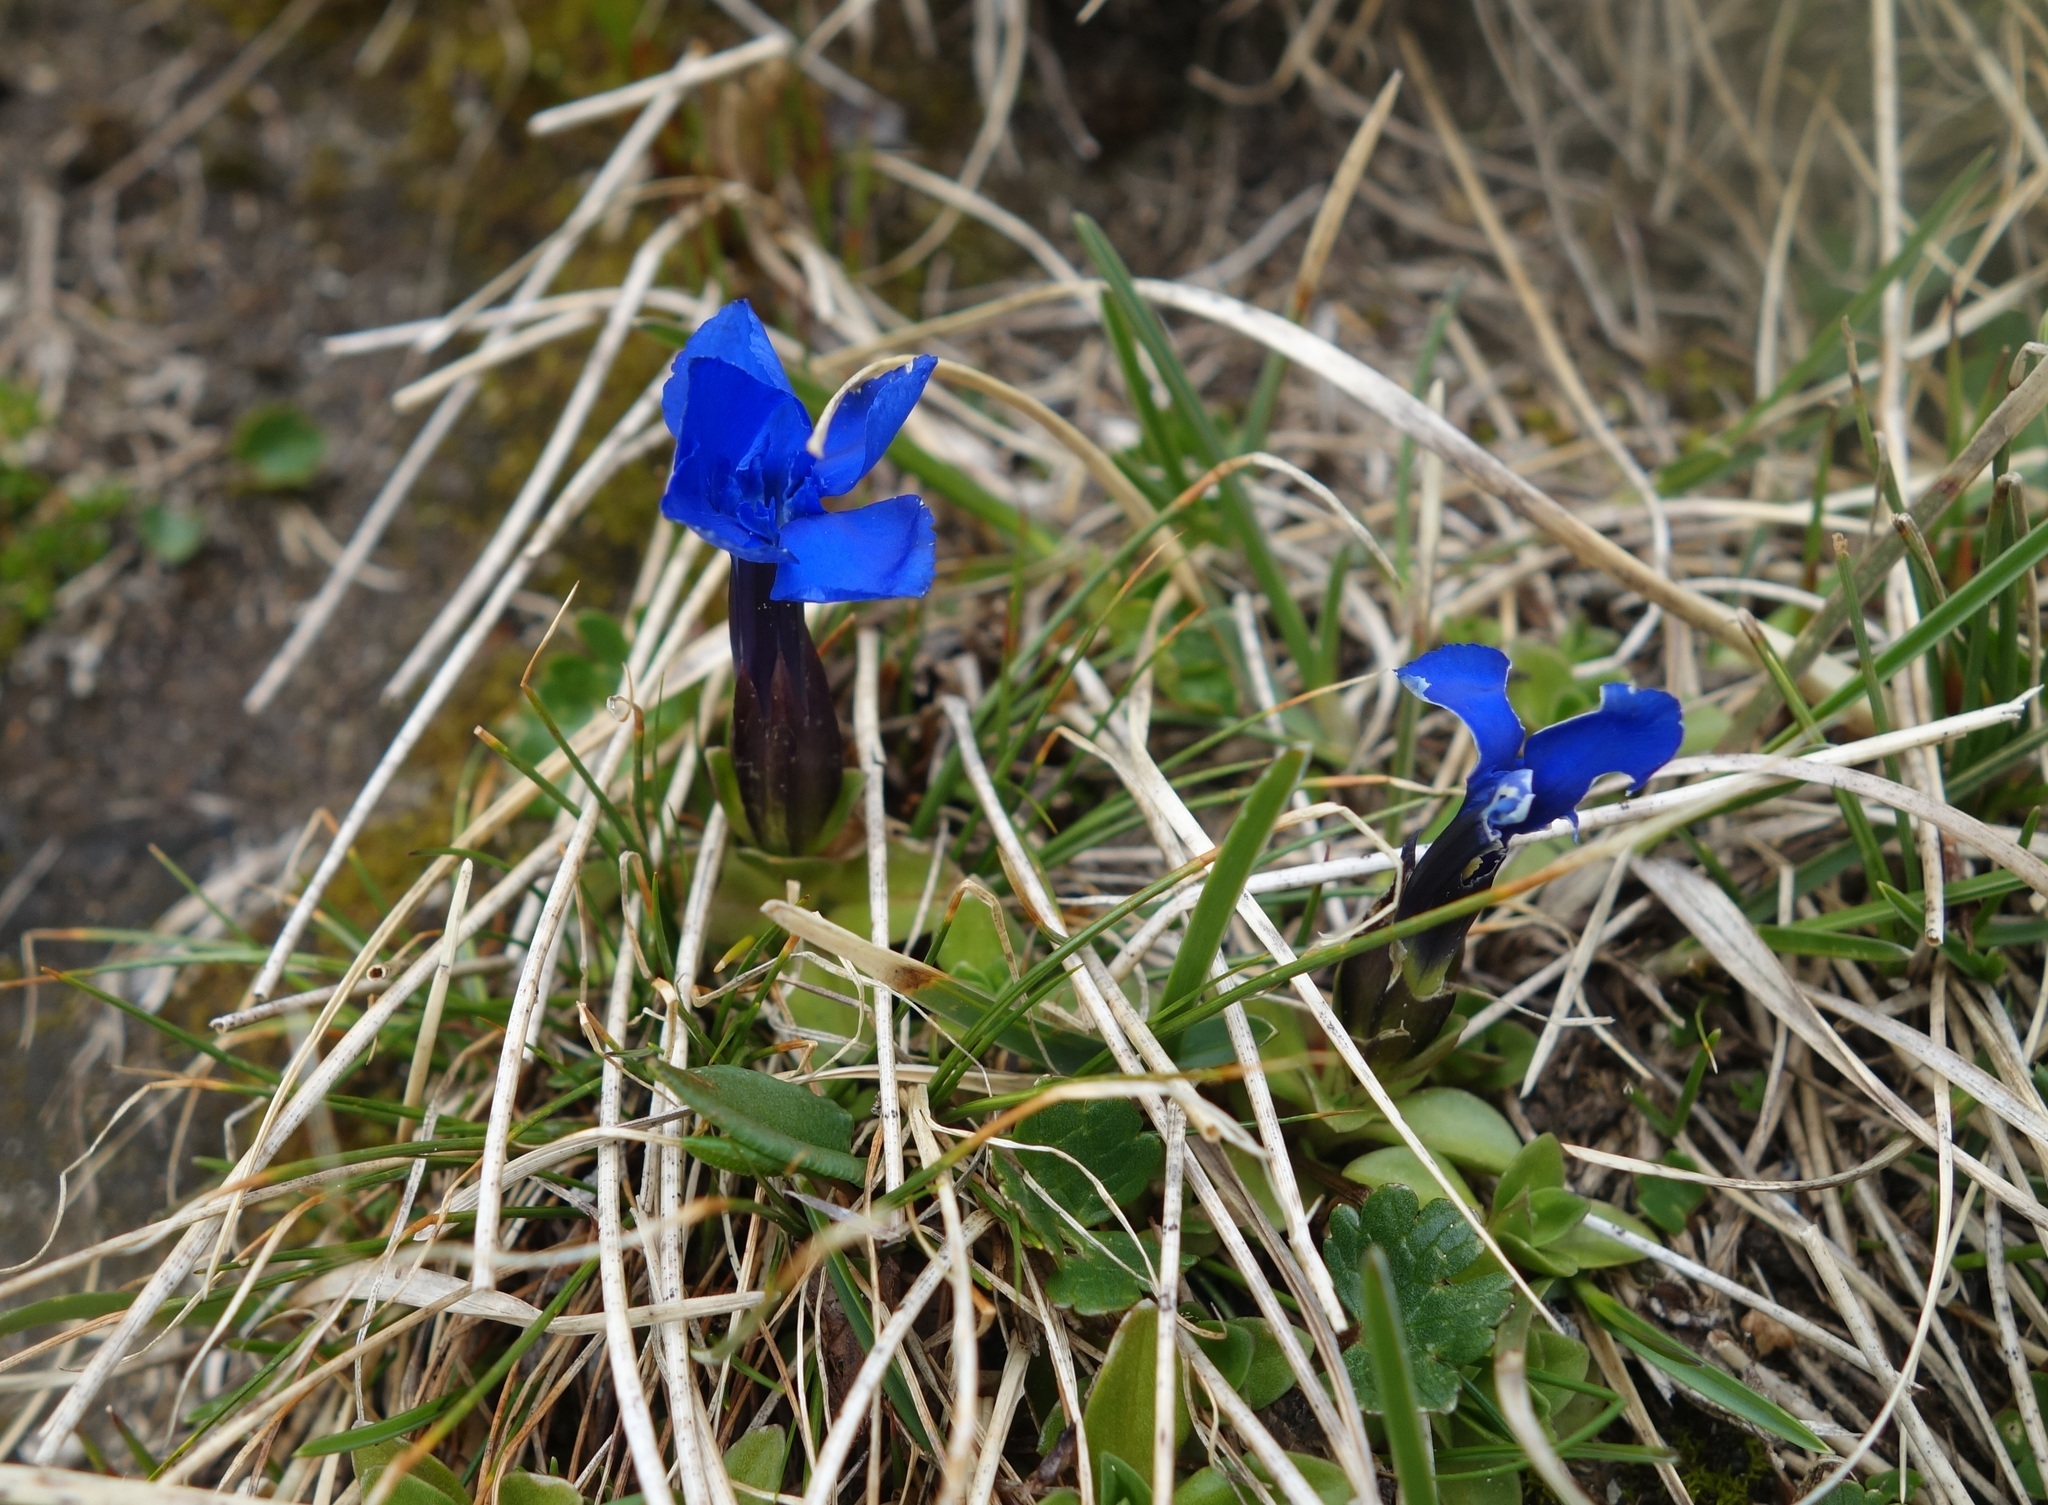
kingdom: Plantae
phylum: Tracheophyta
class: Magnoliopsida
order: Gentianales
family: Gentianaceae
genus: Gentiana
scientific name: Gentiana orbicularis
